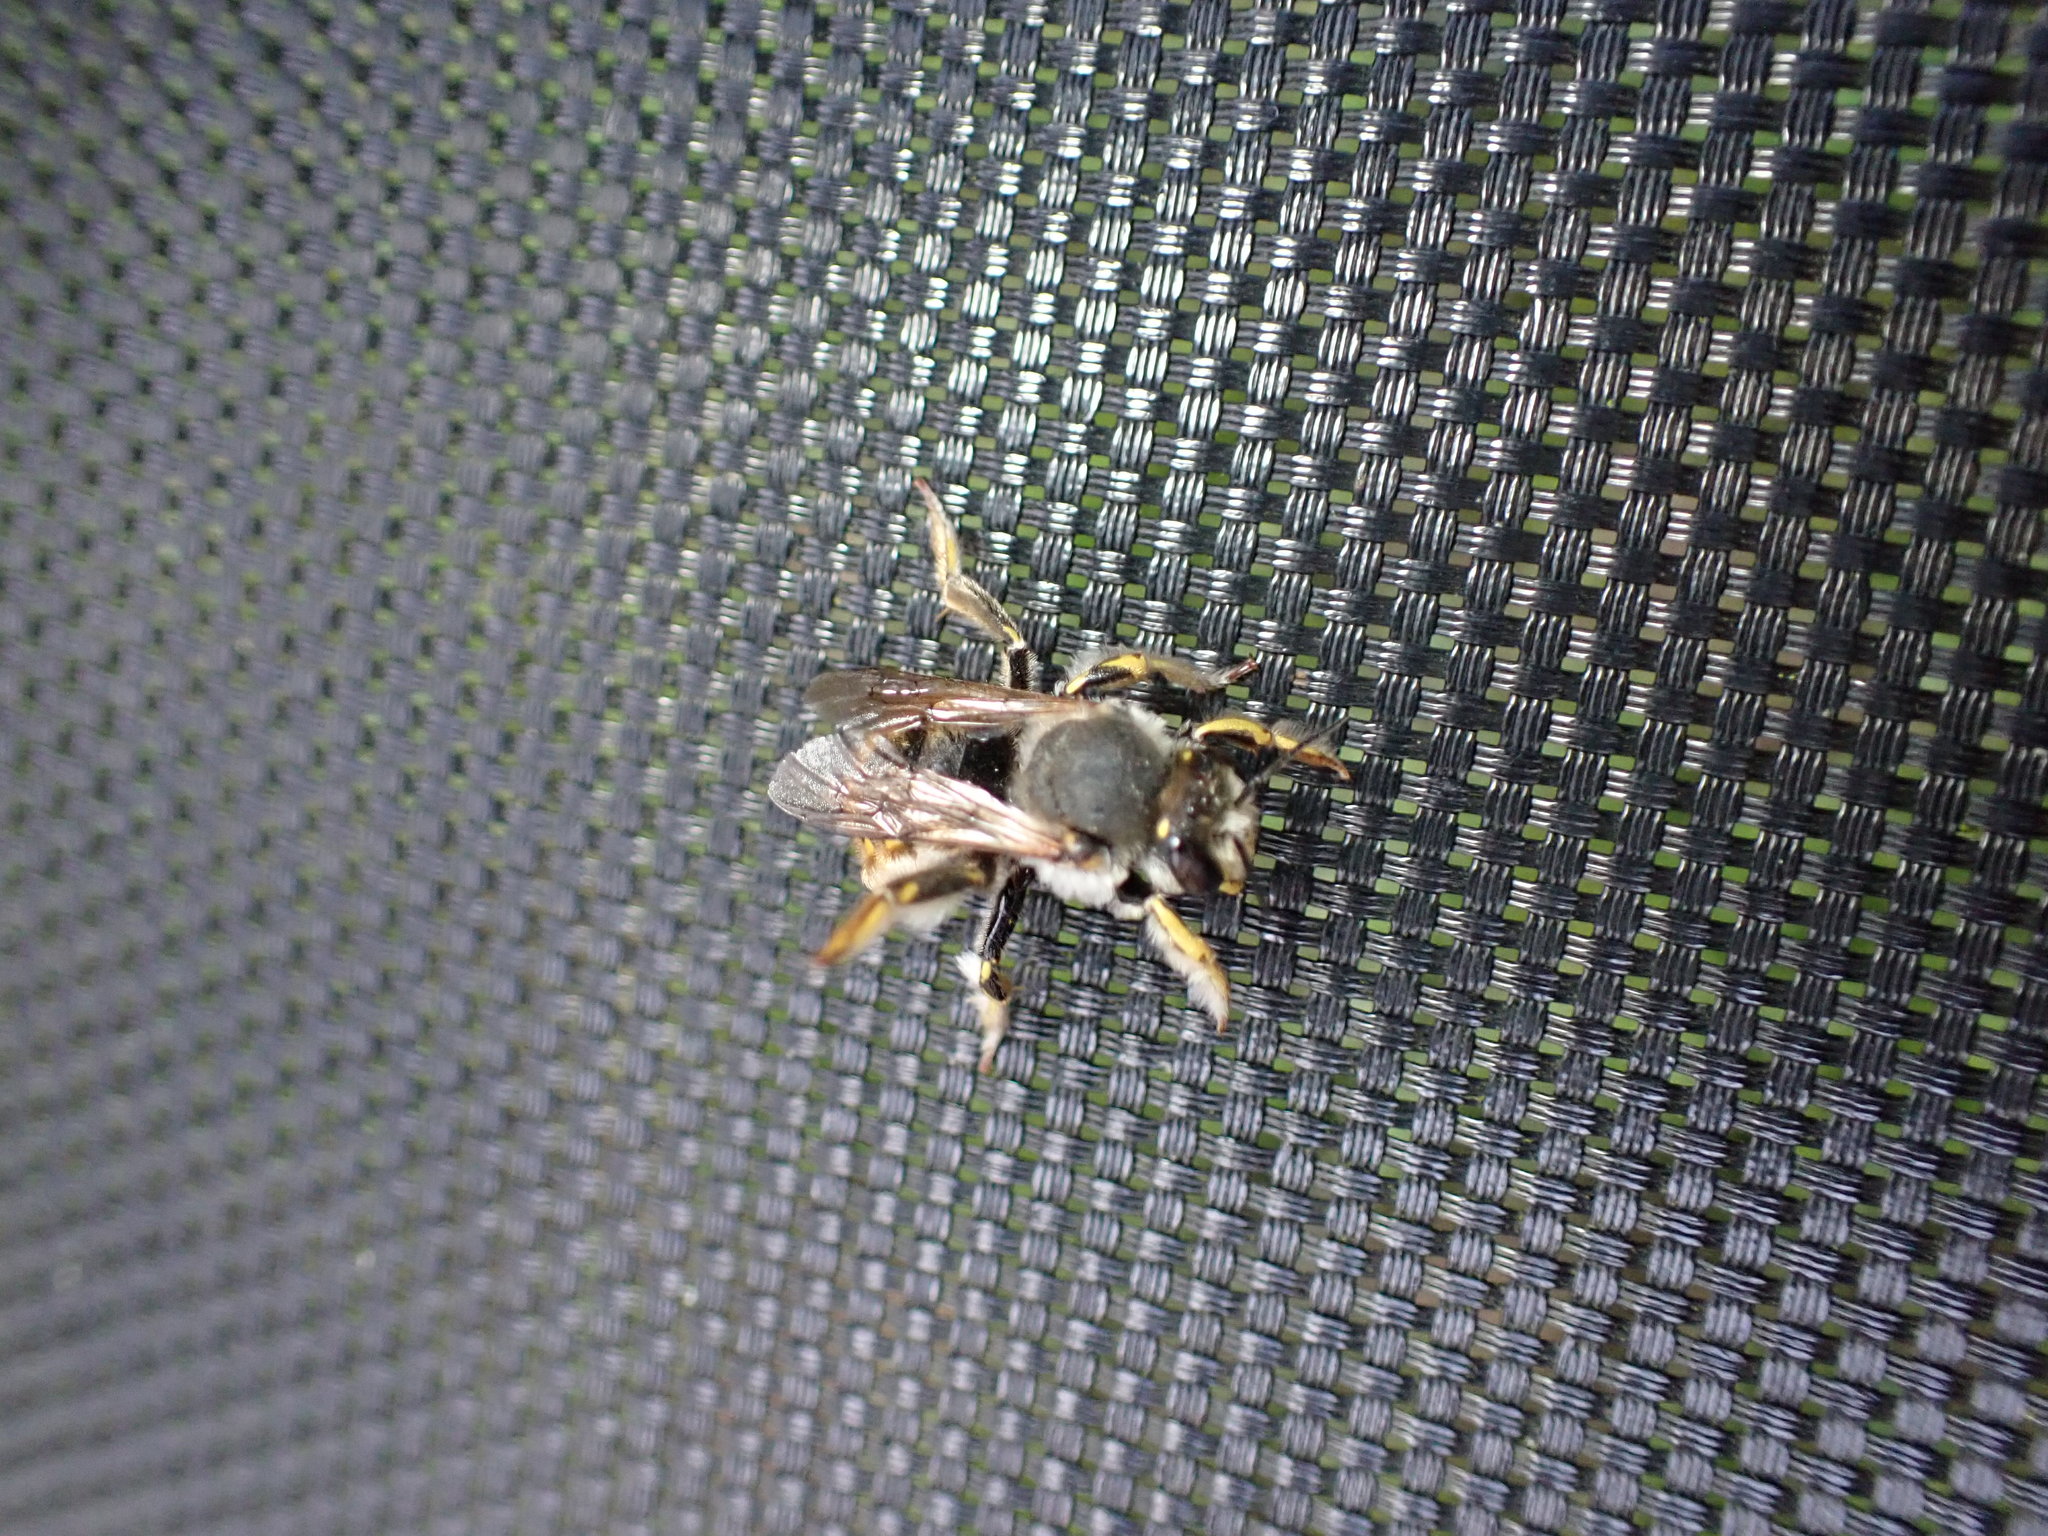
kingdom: Animalia
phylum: Arthropoda
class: Insecta
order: Hymenoptera
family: Megachilidae
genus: Anthidium
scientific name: Anthidium manicatum
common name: Wool carder bee
